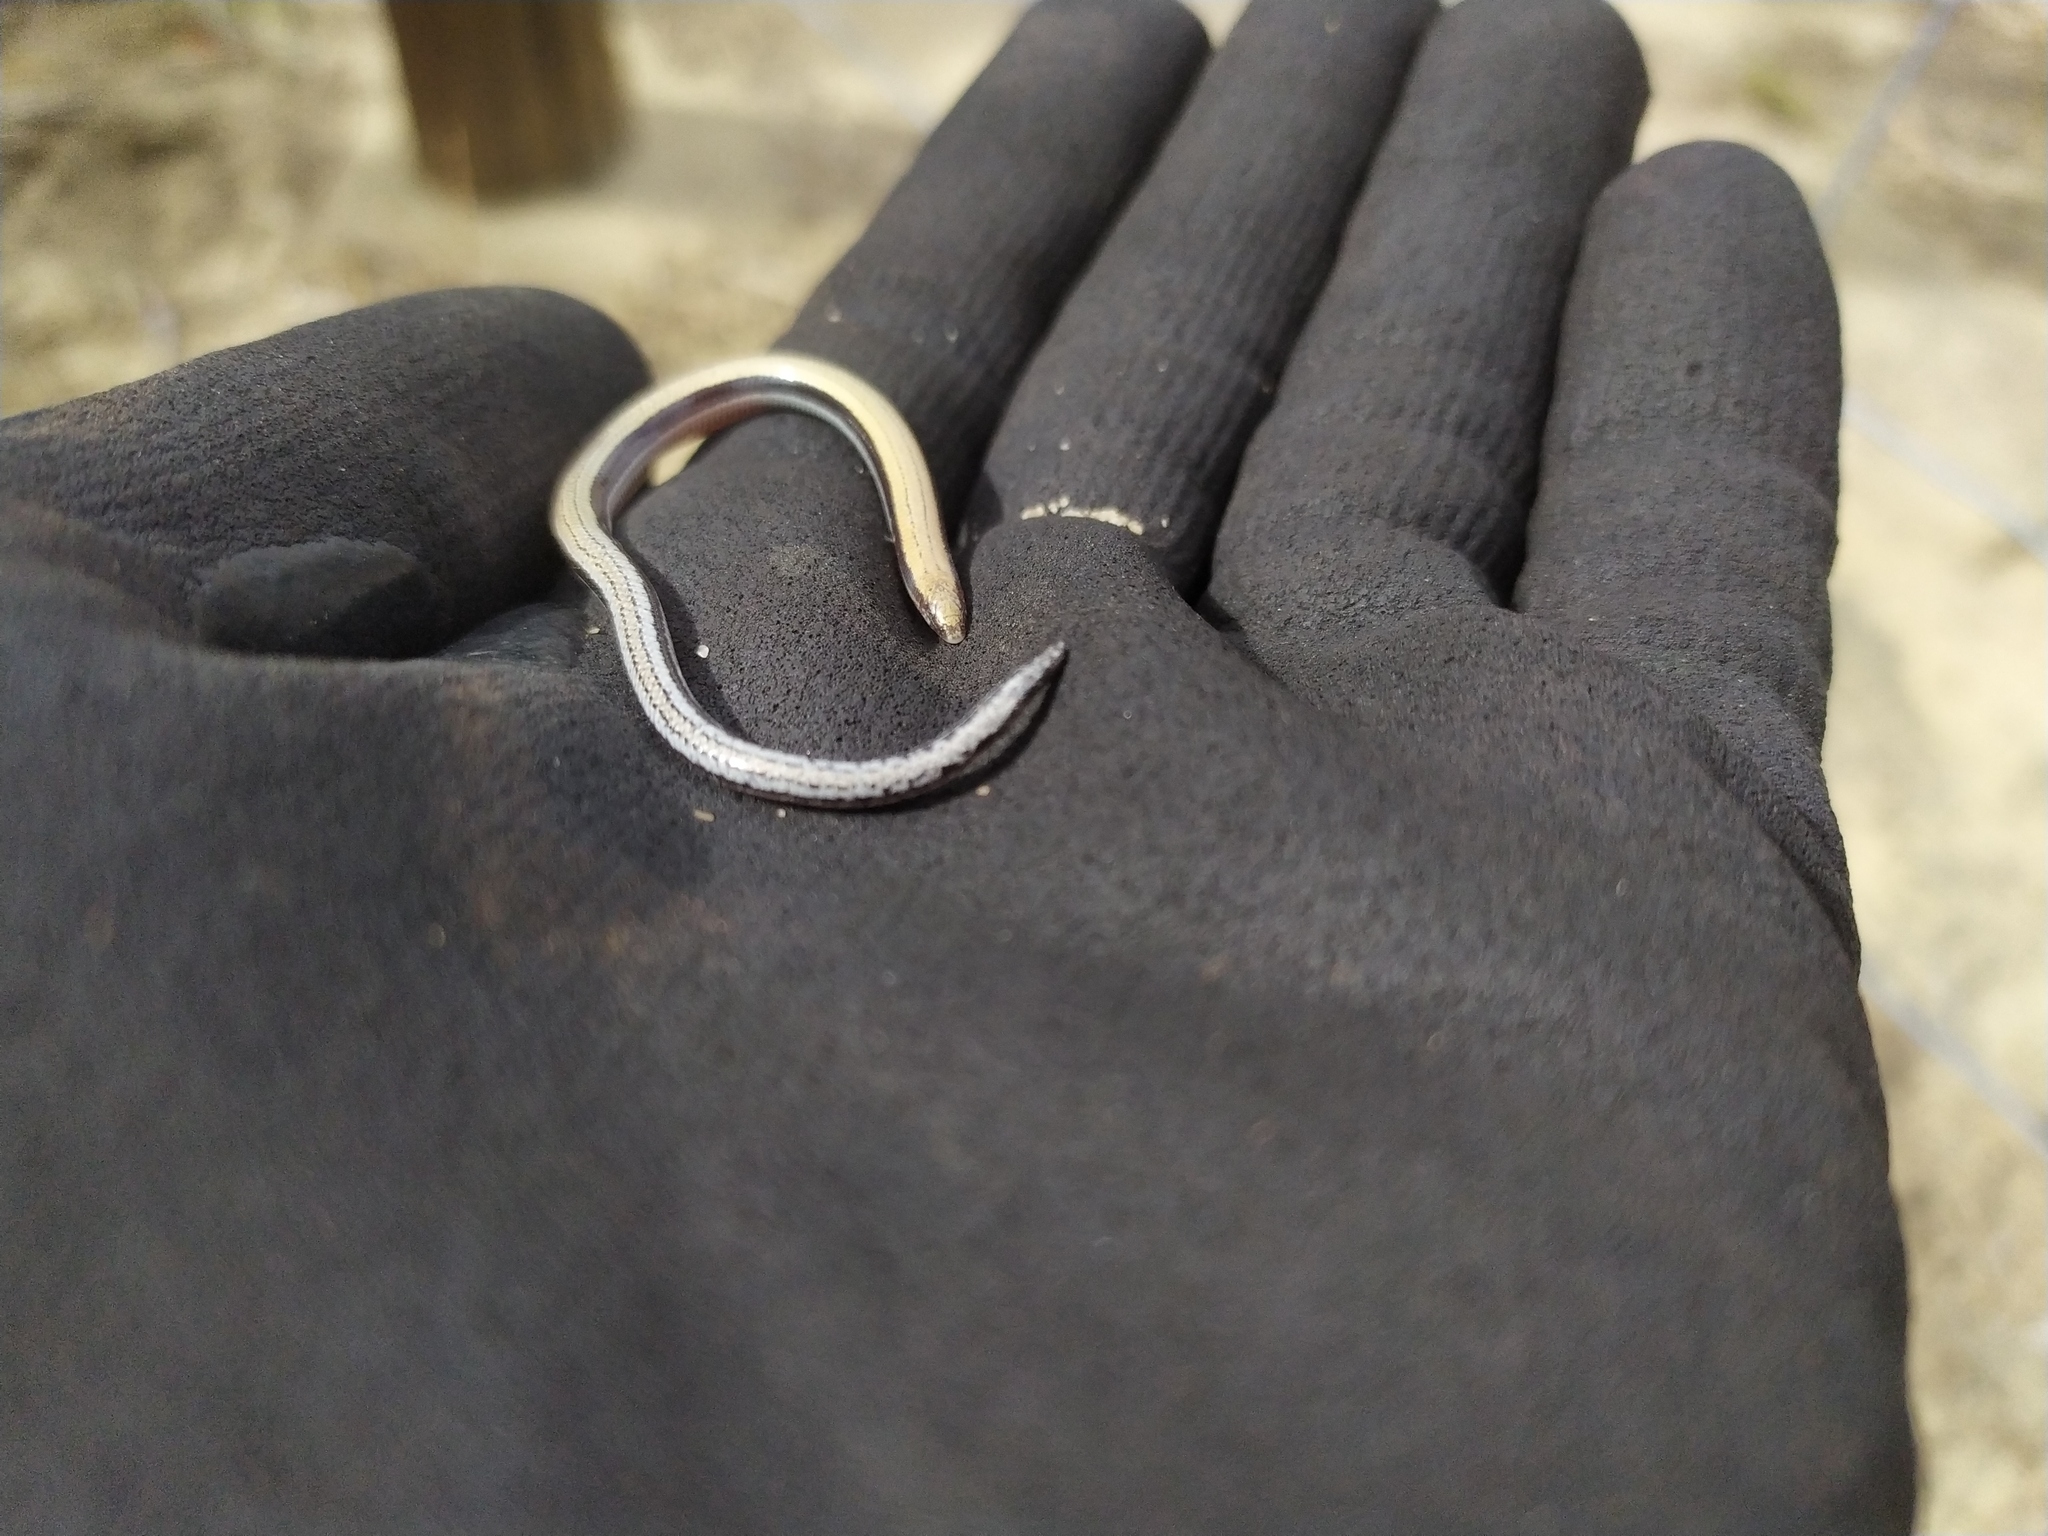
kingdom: Animalia
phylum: Chordata
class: Squamata
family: Scincidae
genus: Lerista
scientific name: Lerista praepedita
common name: Blunt-tailed west-coast slider
